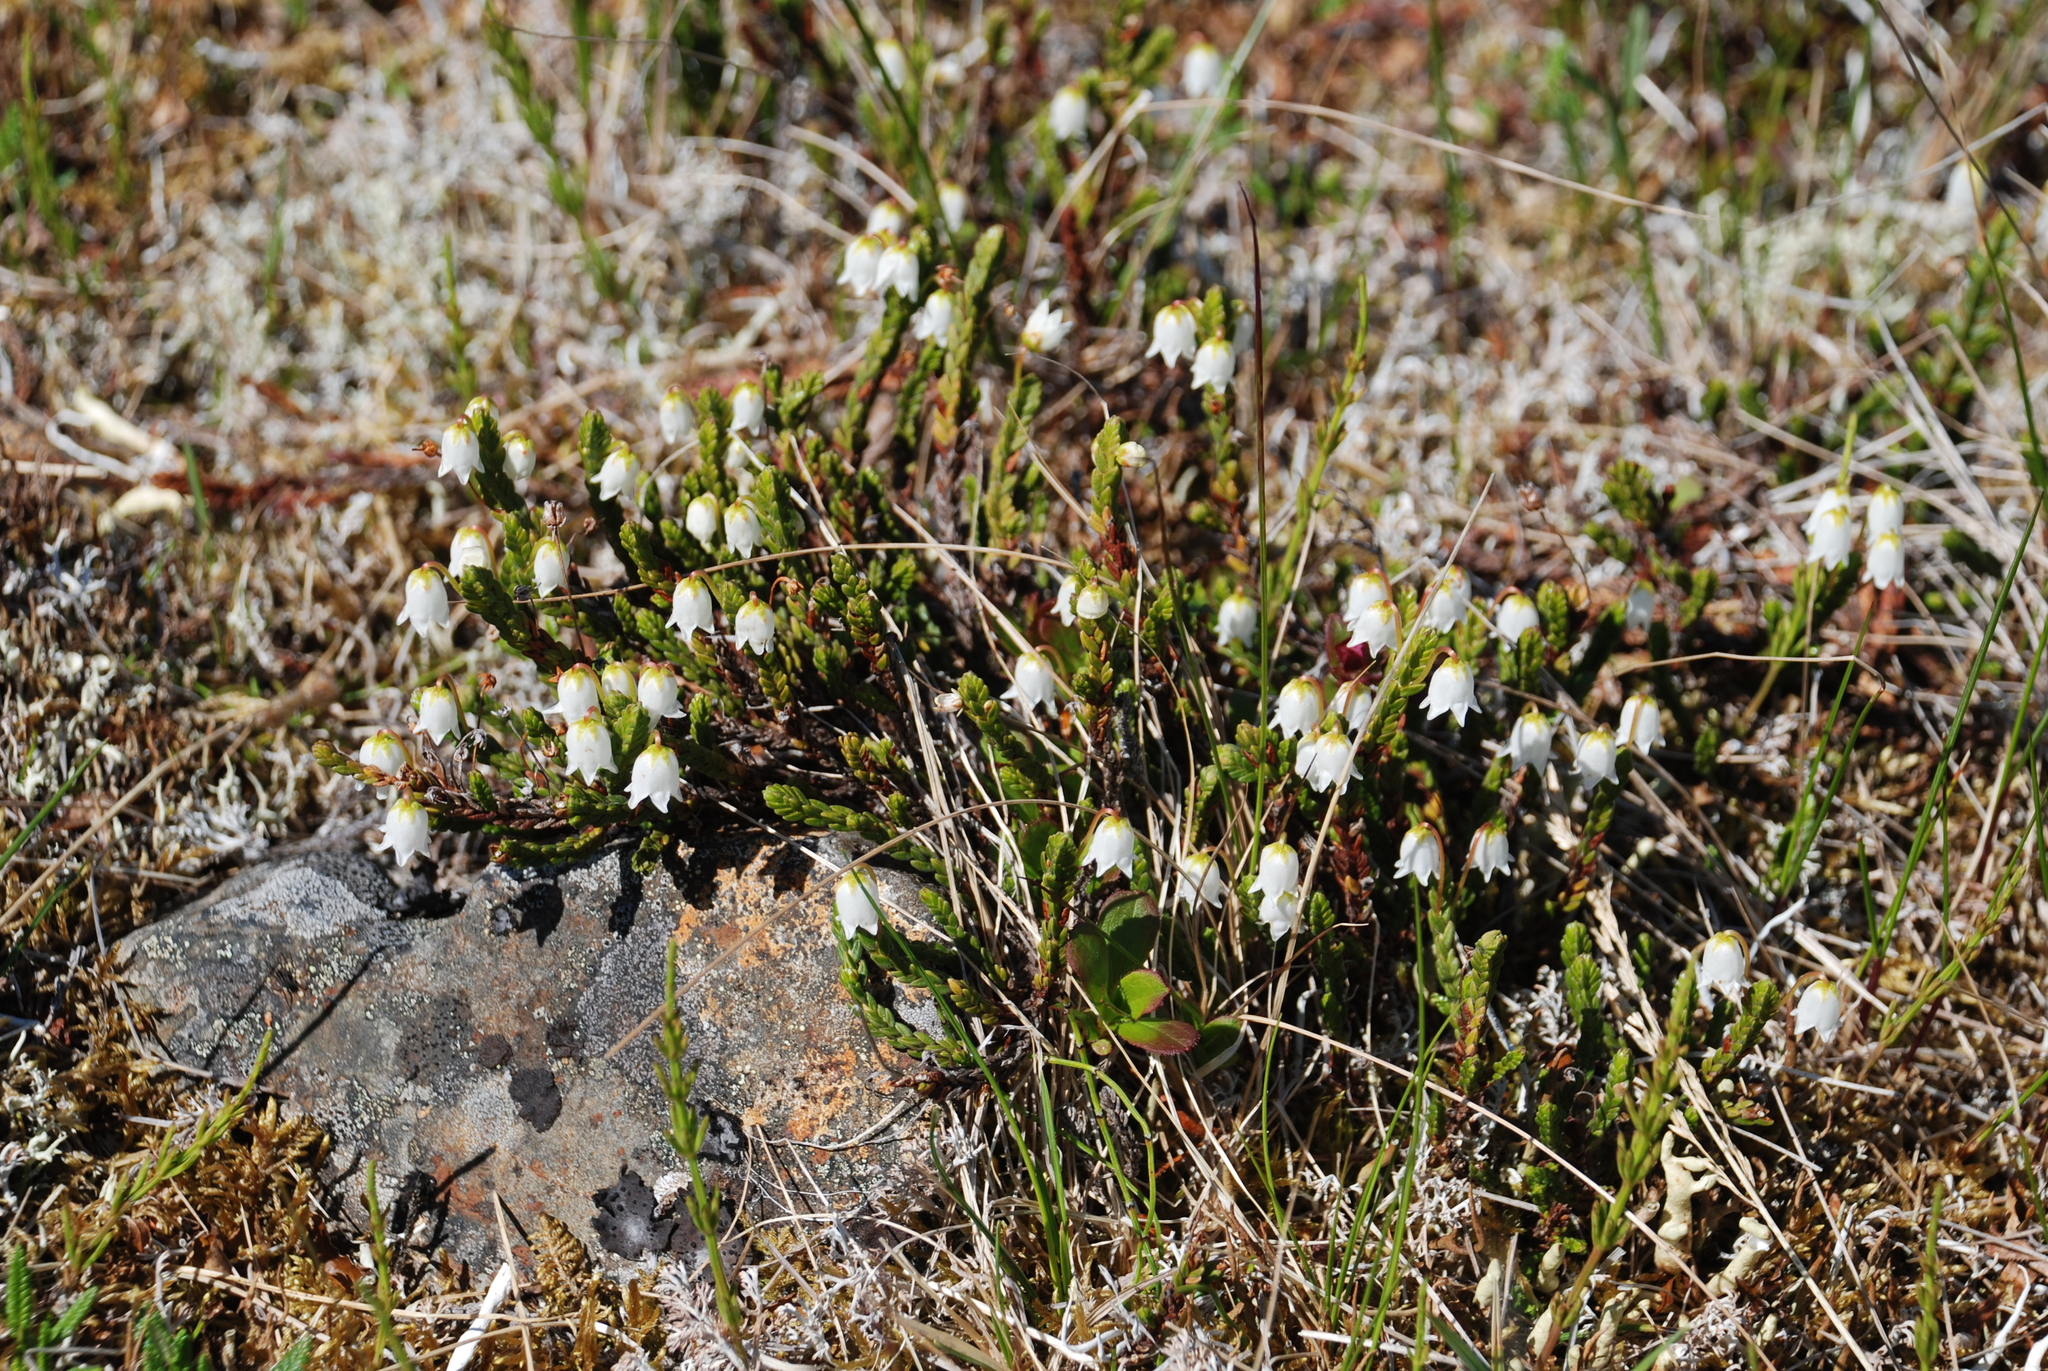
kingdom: Plantae
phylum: Tracheophyta
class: Magnoliopsida
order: Ericales
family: Ericaceae
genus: Cassiope
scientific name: Cassiope tetragona
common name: Arctic bell heather
